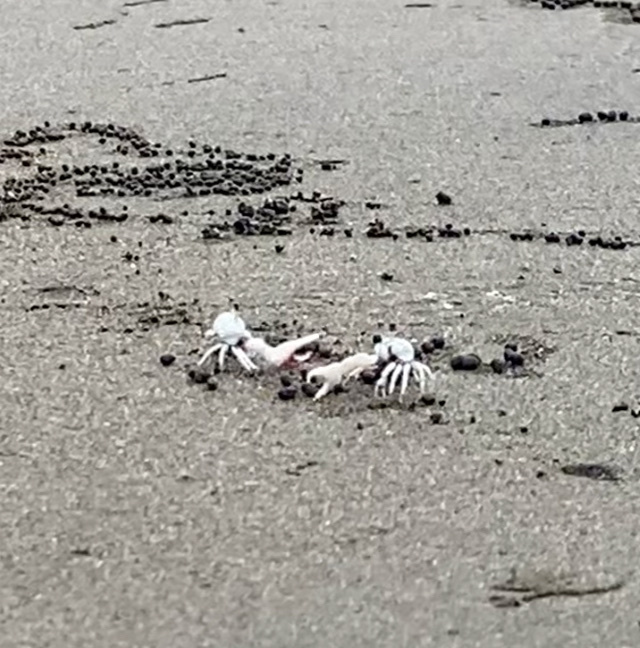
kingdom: Animalia
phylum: Arthropoda
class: Malacostraca
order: Decapoda
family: Ocypodidae
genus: Leptuca
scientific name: Leptuca terpsichores
